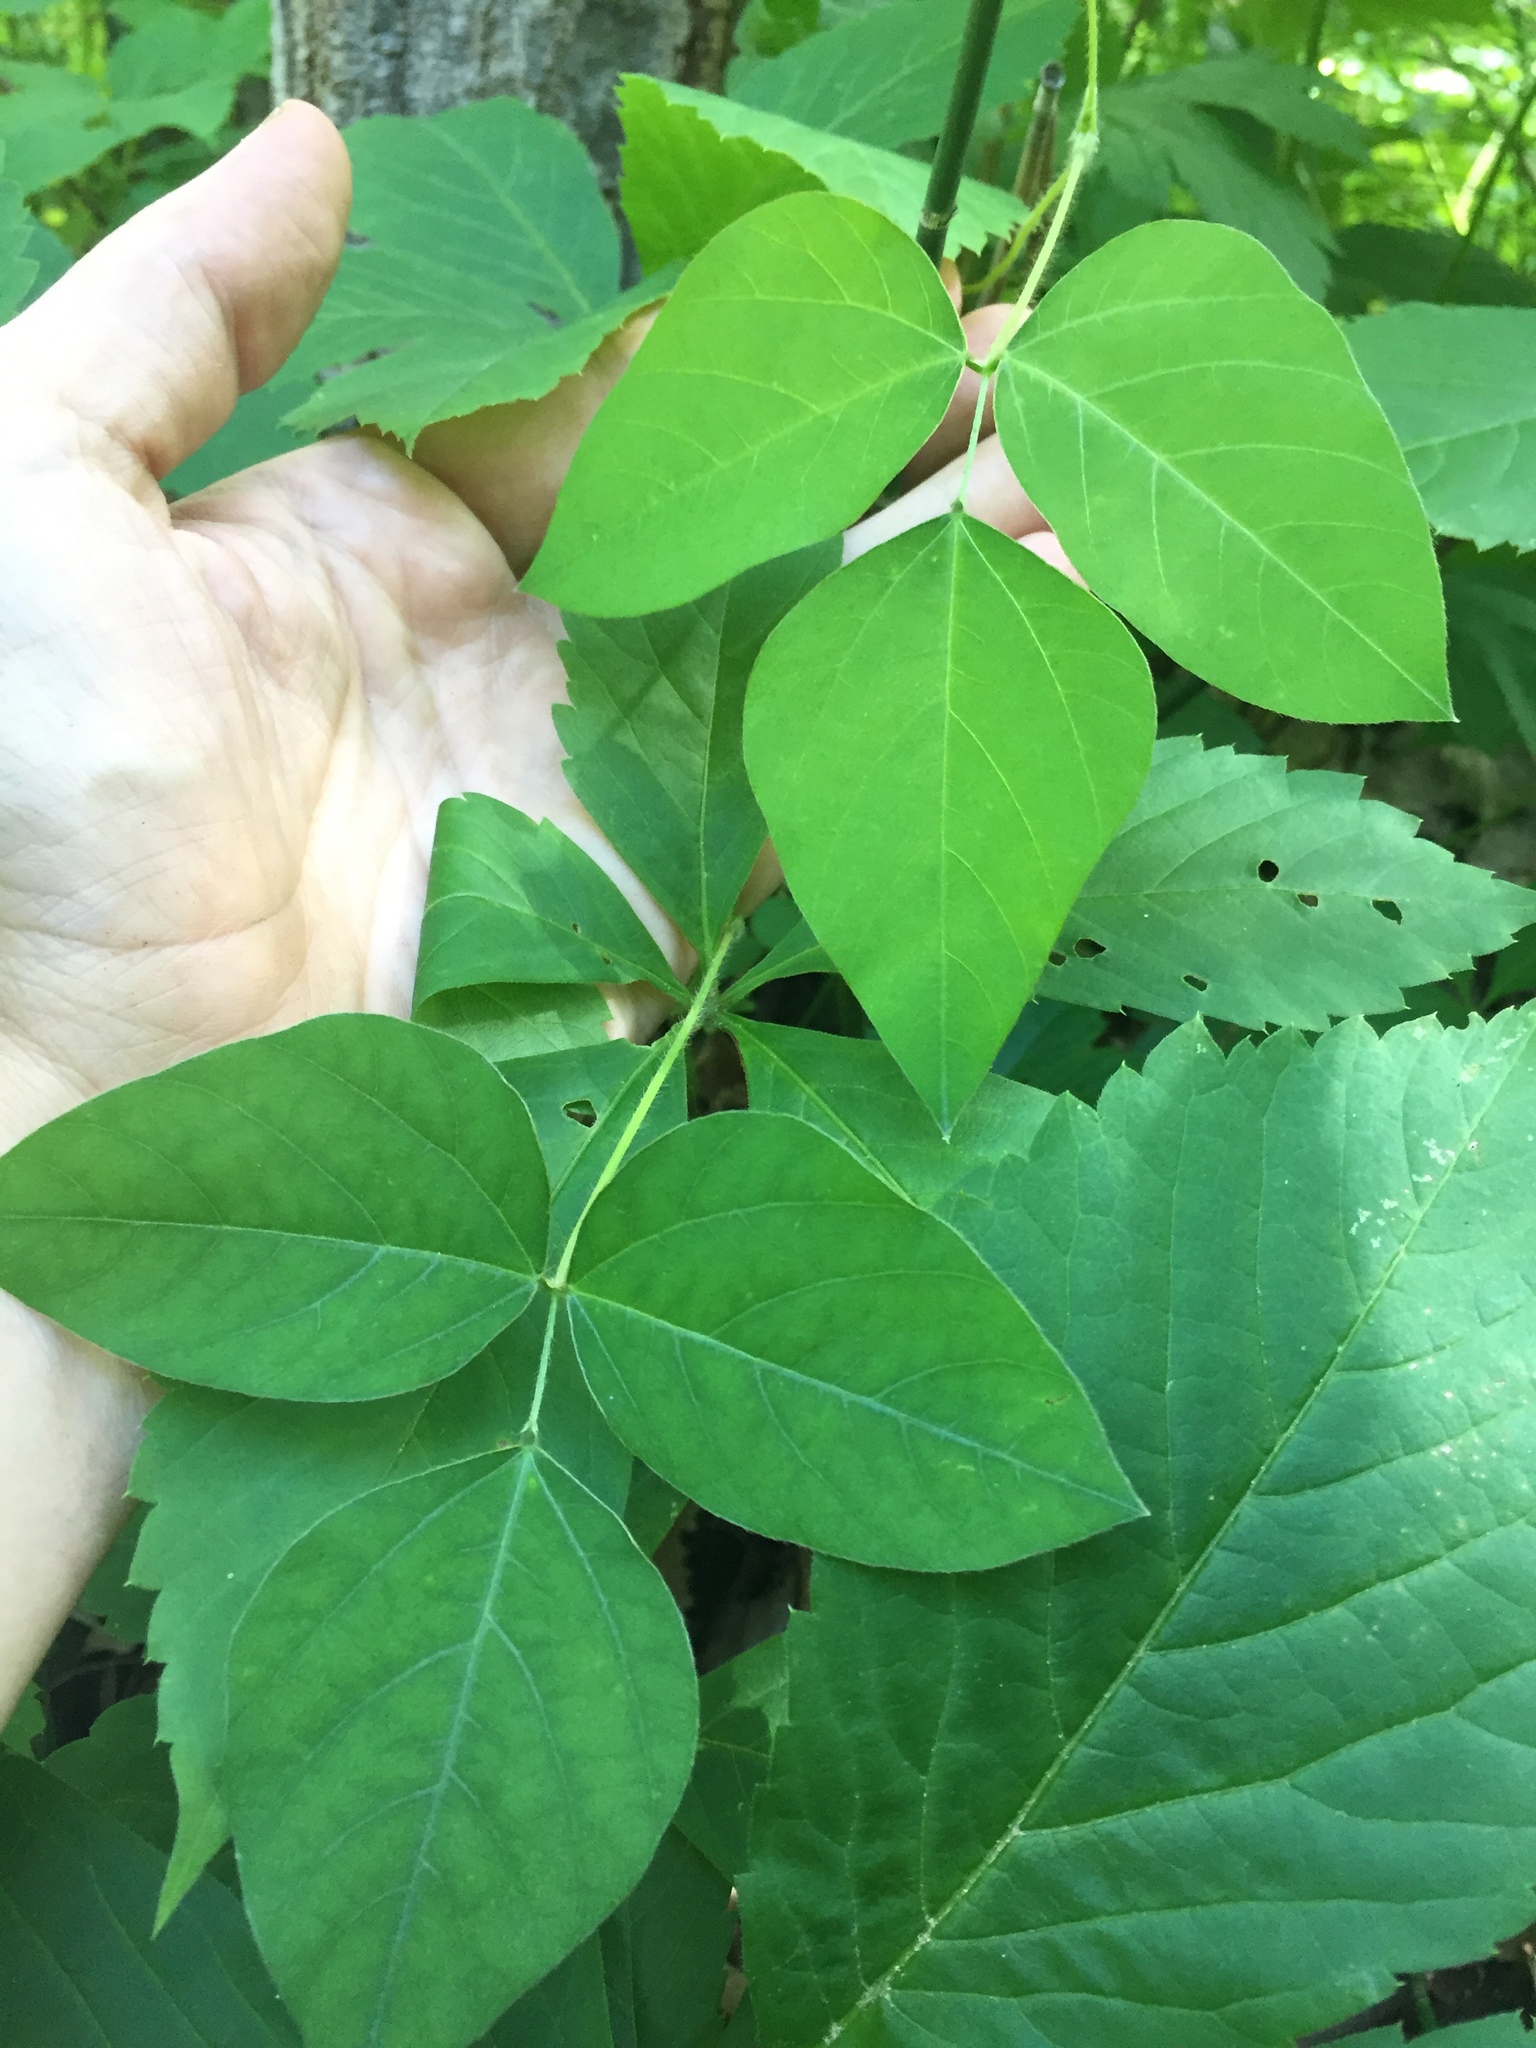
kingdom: Plantae
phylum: Tracheophyta
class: Magnoliopsida
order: Fabales
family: Fabaceae
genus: Amphicarpaea
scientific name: Amphicarpaea bracteata
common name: American hog peanut
